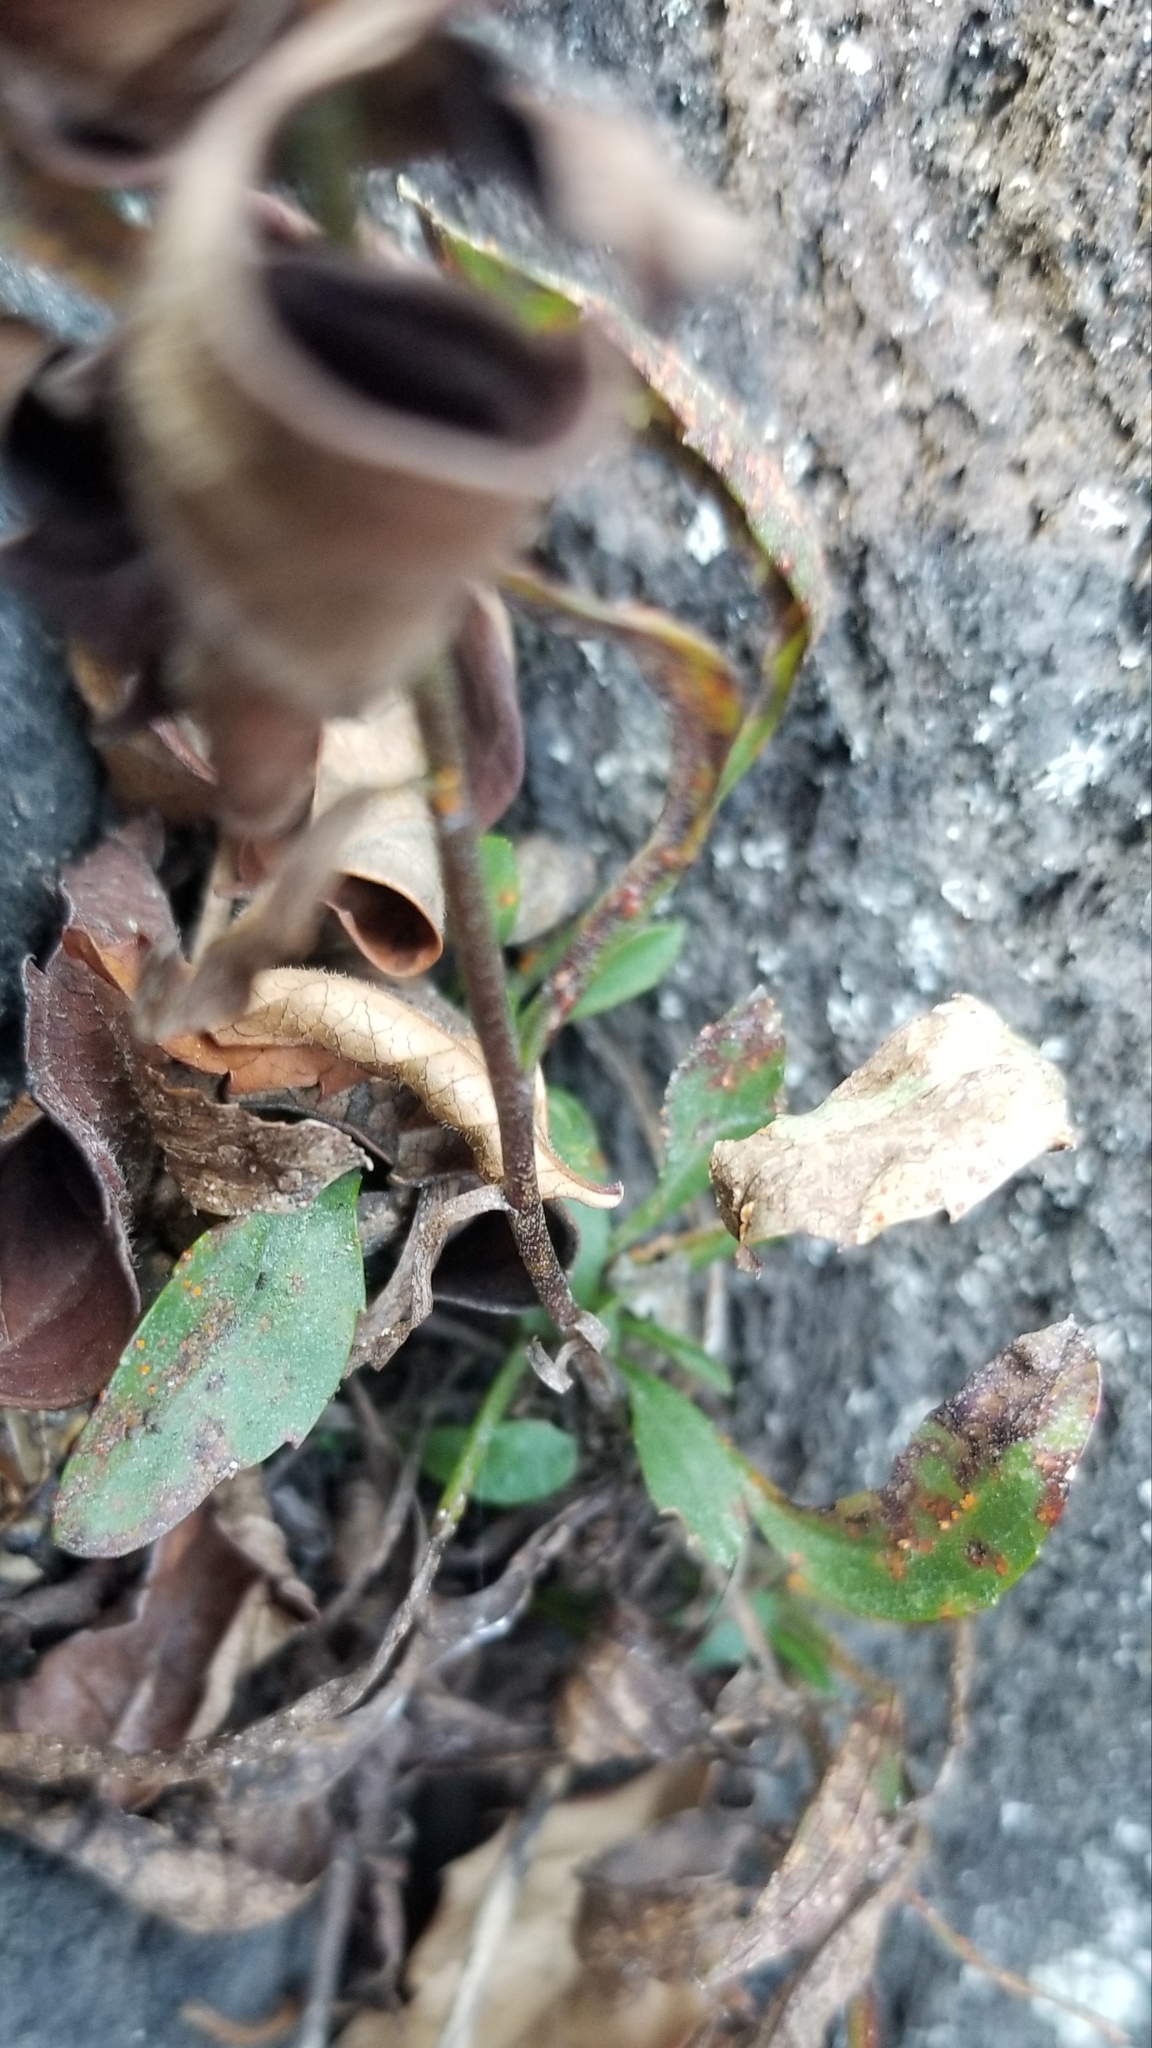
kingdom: Plantae
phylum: Tracheophyta
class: Magnoliopsida
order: Asterales
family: Asteraceae
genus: Solidago
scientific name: Solidago racemosa
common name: Lake ontario goldenrod
